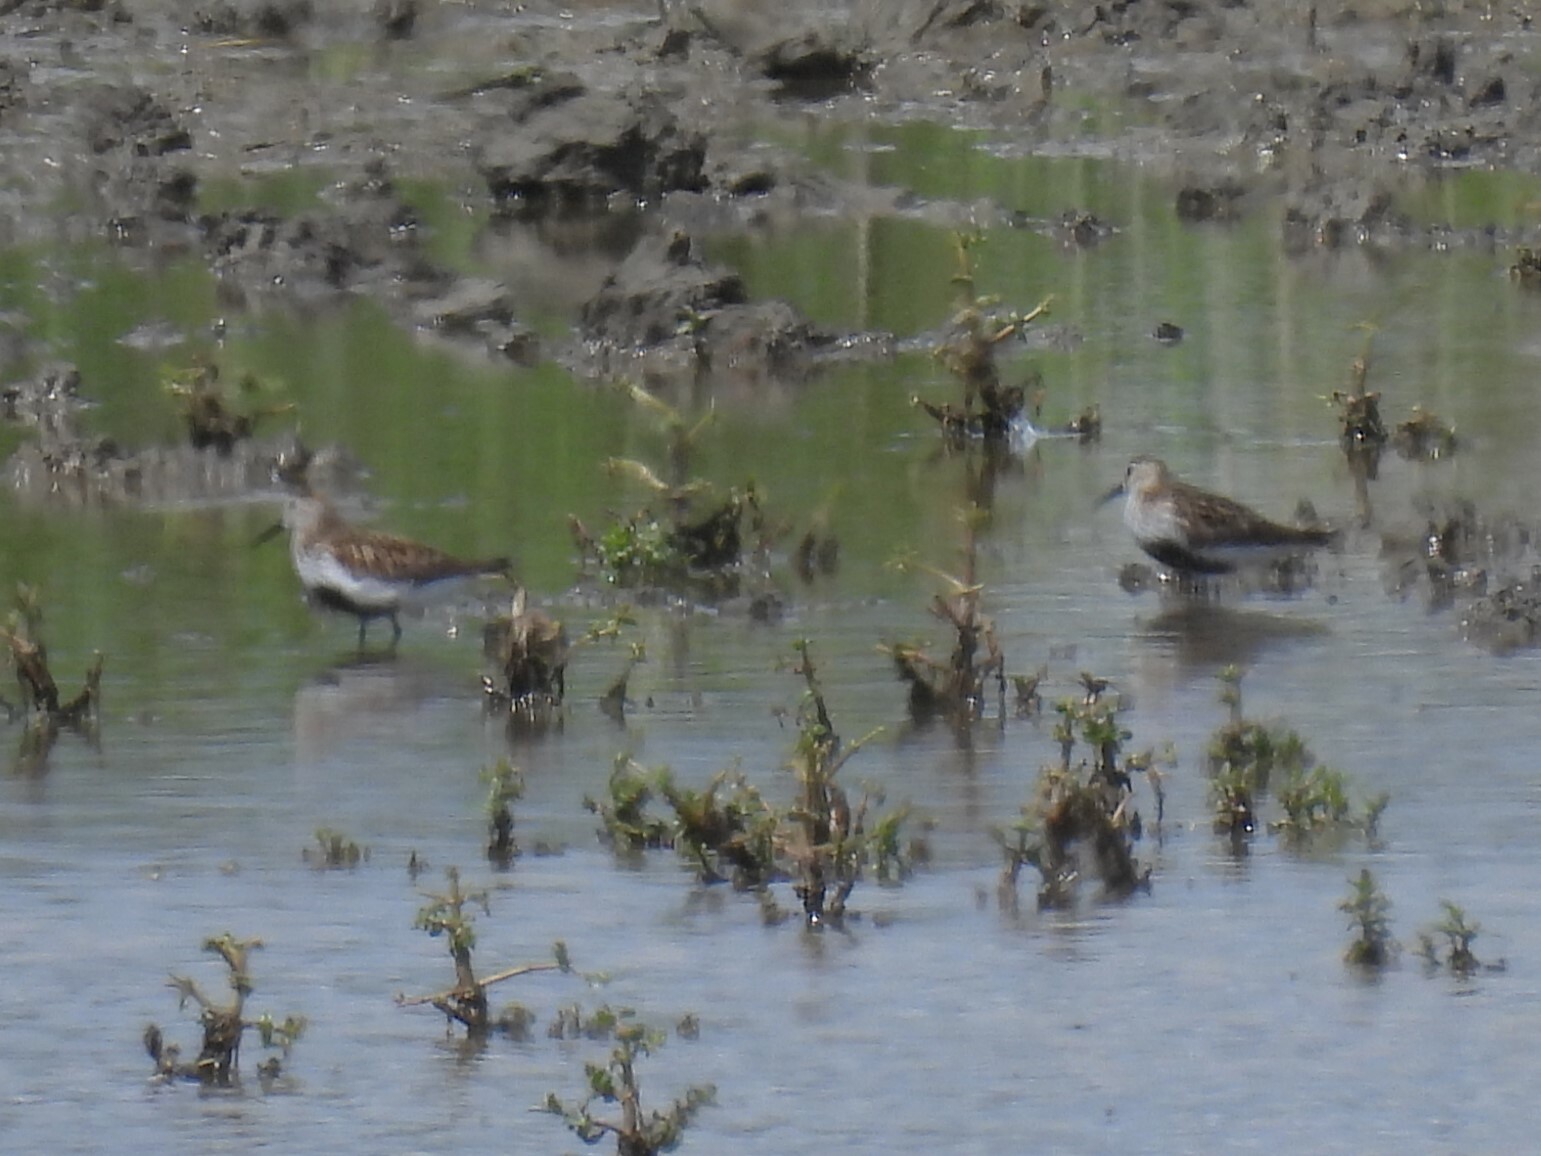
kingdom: Animalia
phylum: Chordata
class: Aves
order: Charadriiformes
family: Scolopacidae
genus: Calidris
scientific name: Calidris alpina
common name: Dunlin
